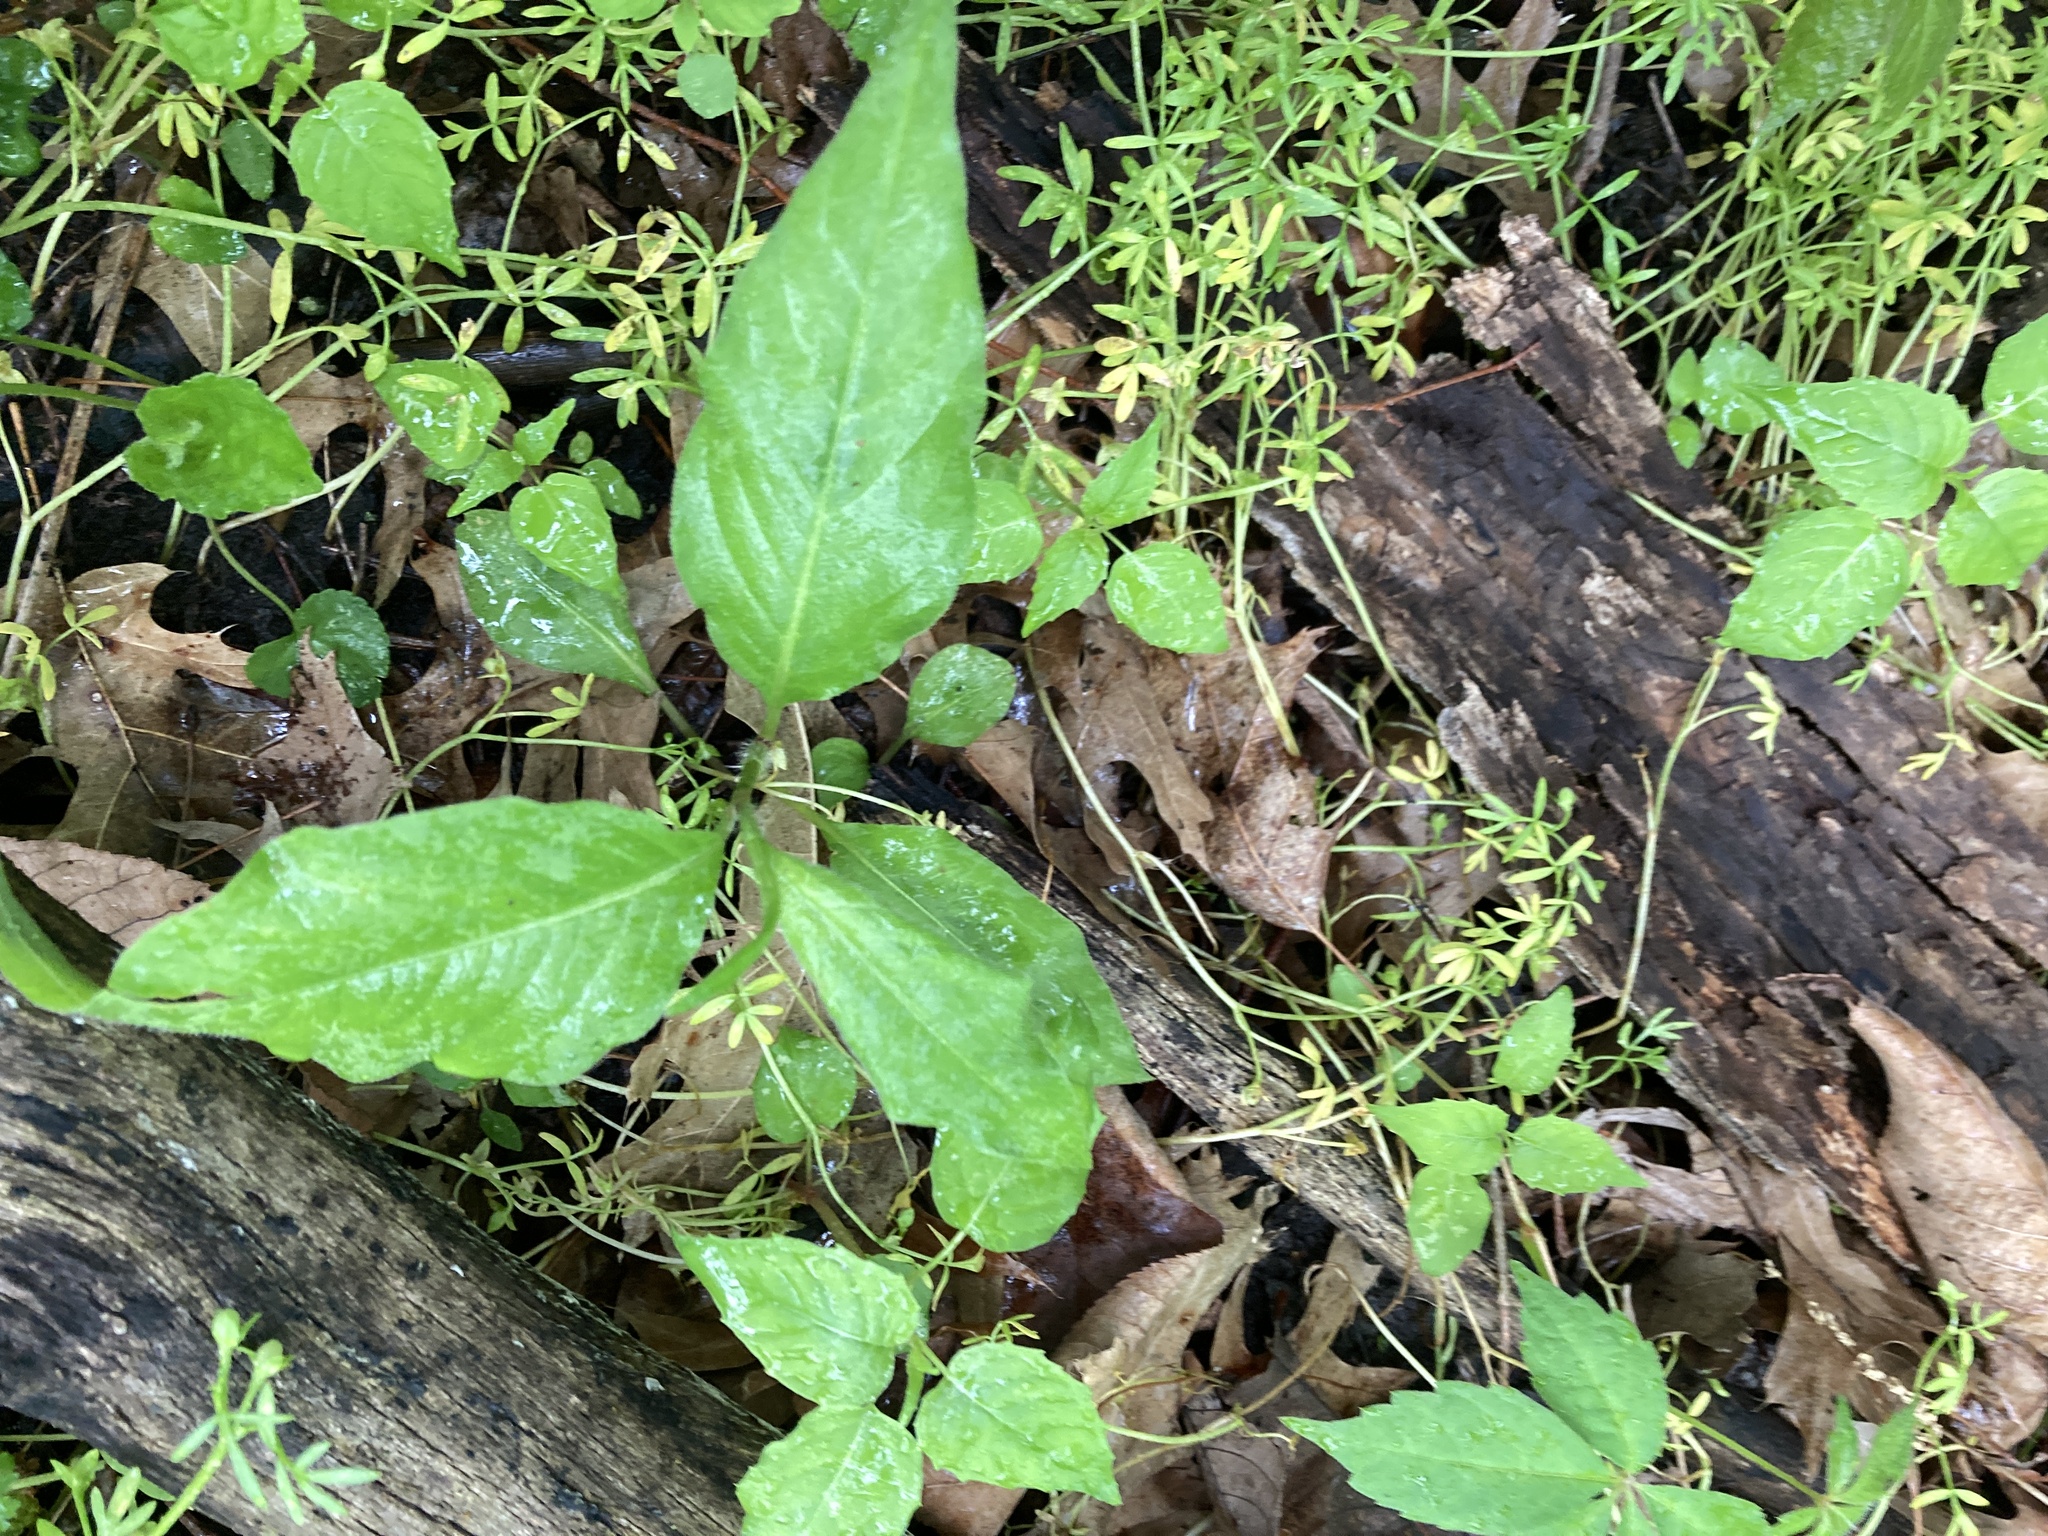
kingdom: Plantae
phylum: Tracheophyta
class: Magnoliopsida
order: Caryophyllales
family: Polygonaceae
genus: Persicaria
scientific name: Persicaria virginiana
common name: Jumpseed
